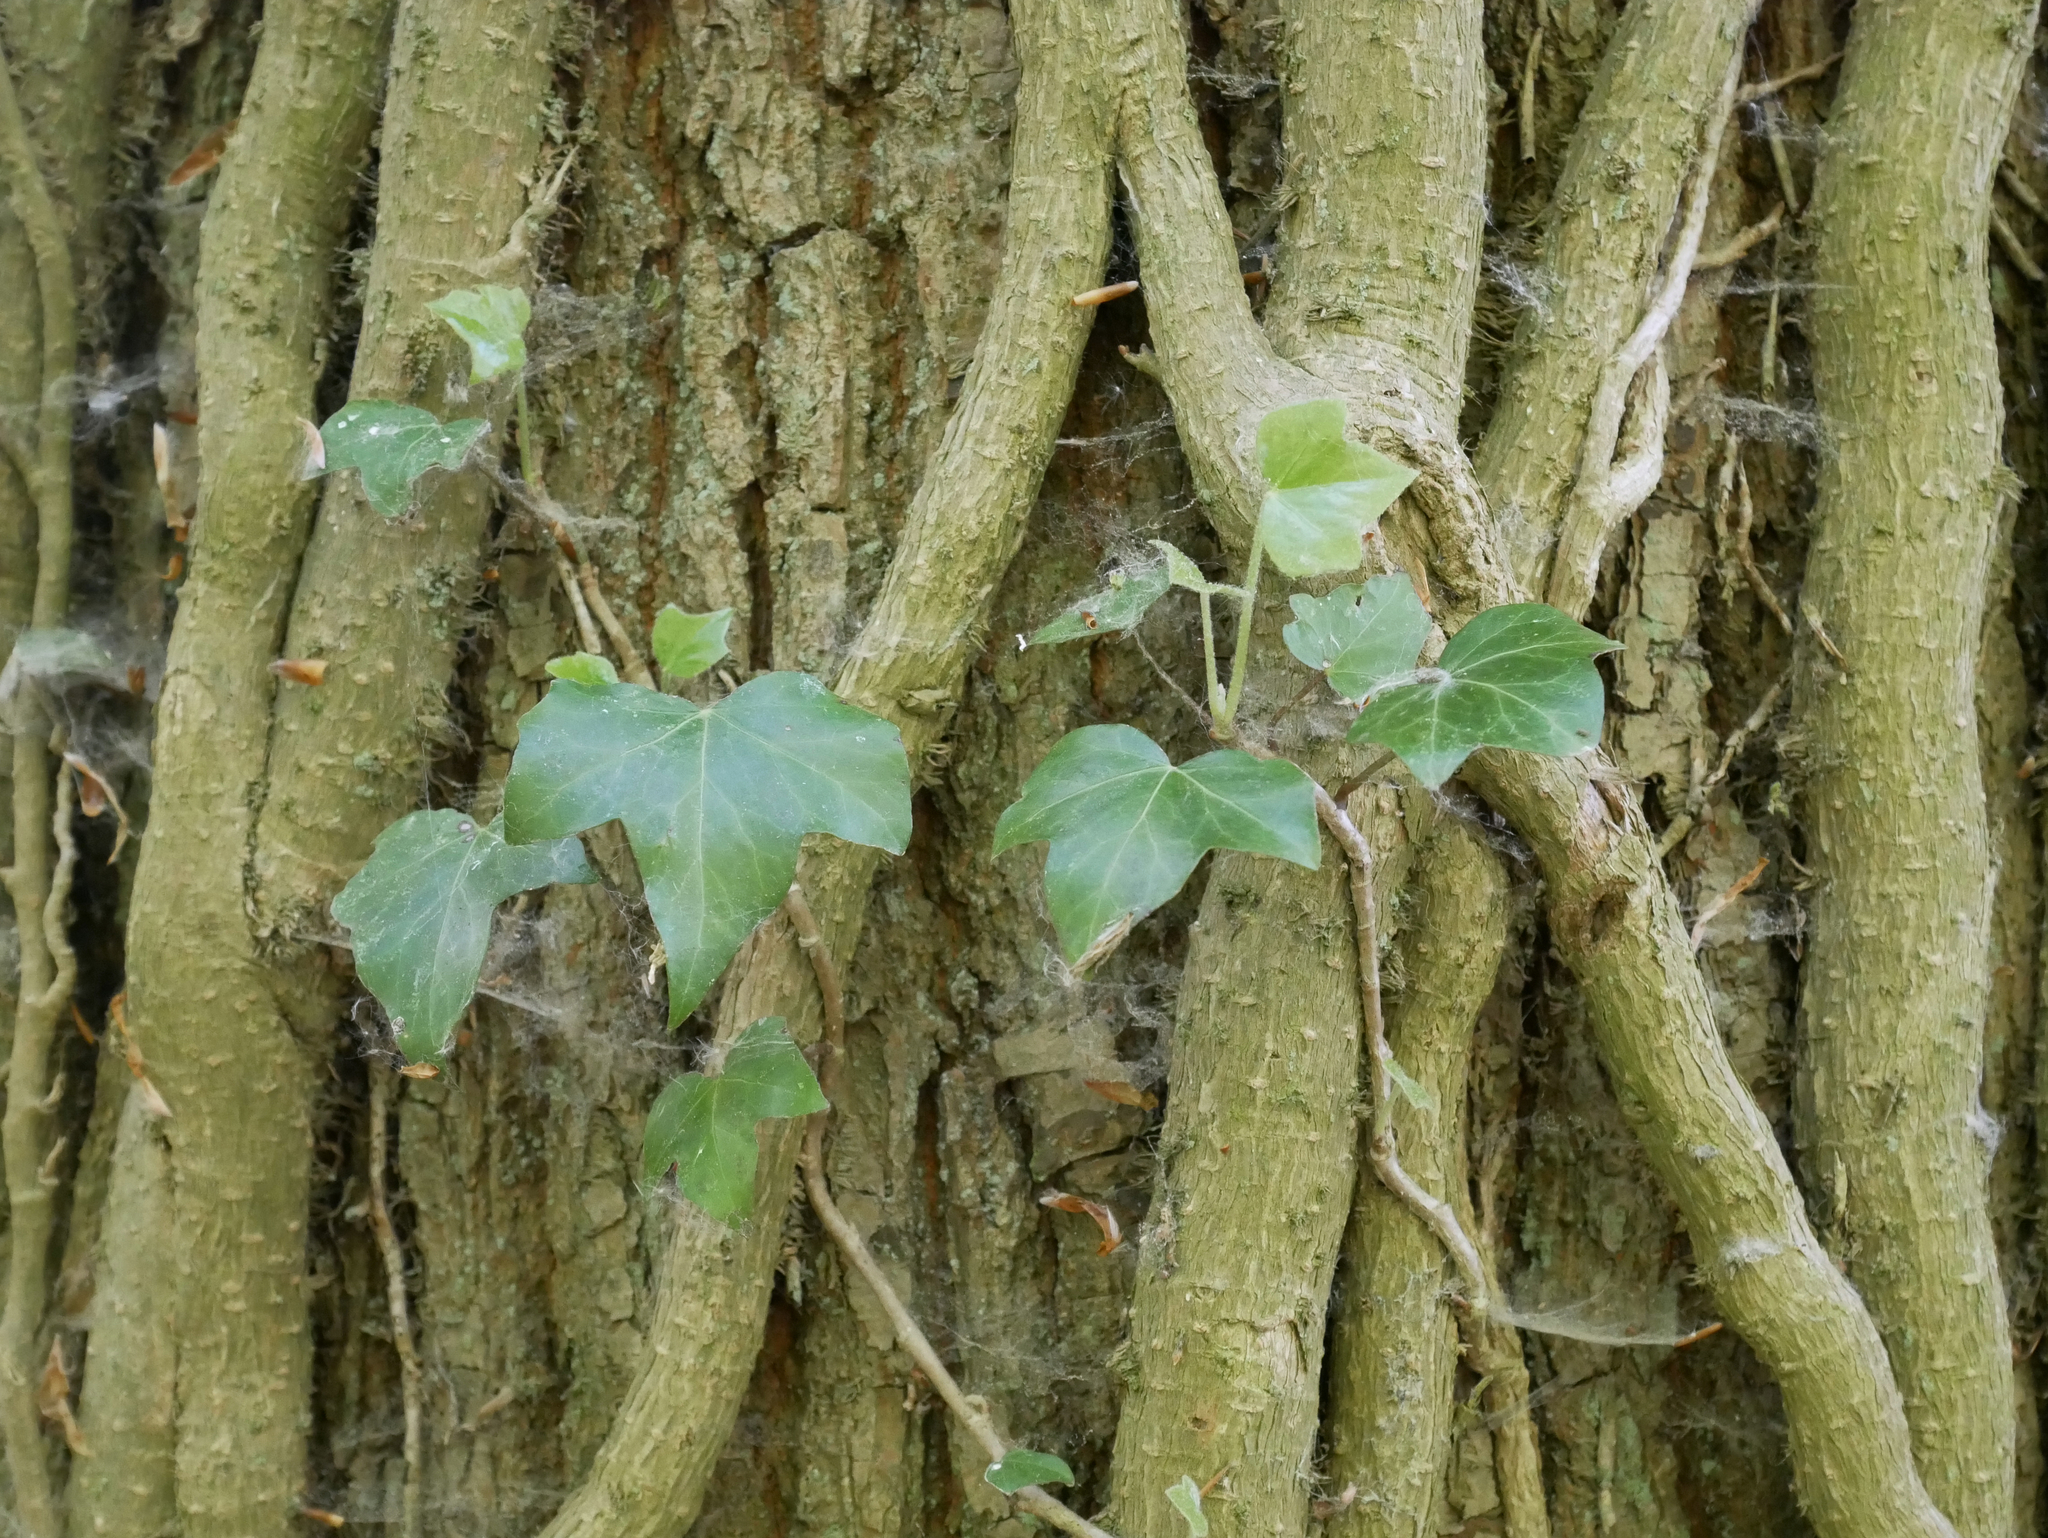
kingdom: Plantae
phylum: Tracheophyta
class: Magnoliopsida
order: Apiales
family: Araliaceae
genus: Hedera
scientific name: Hedera helix
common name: Ivy
